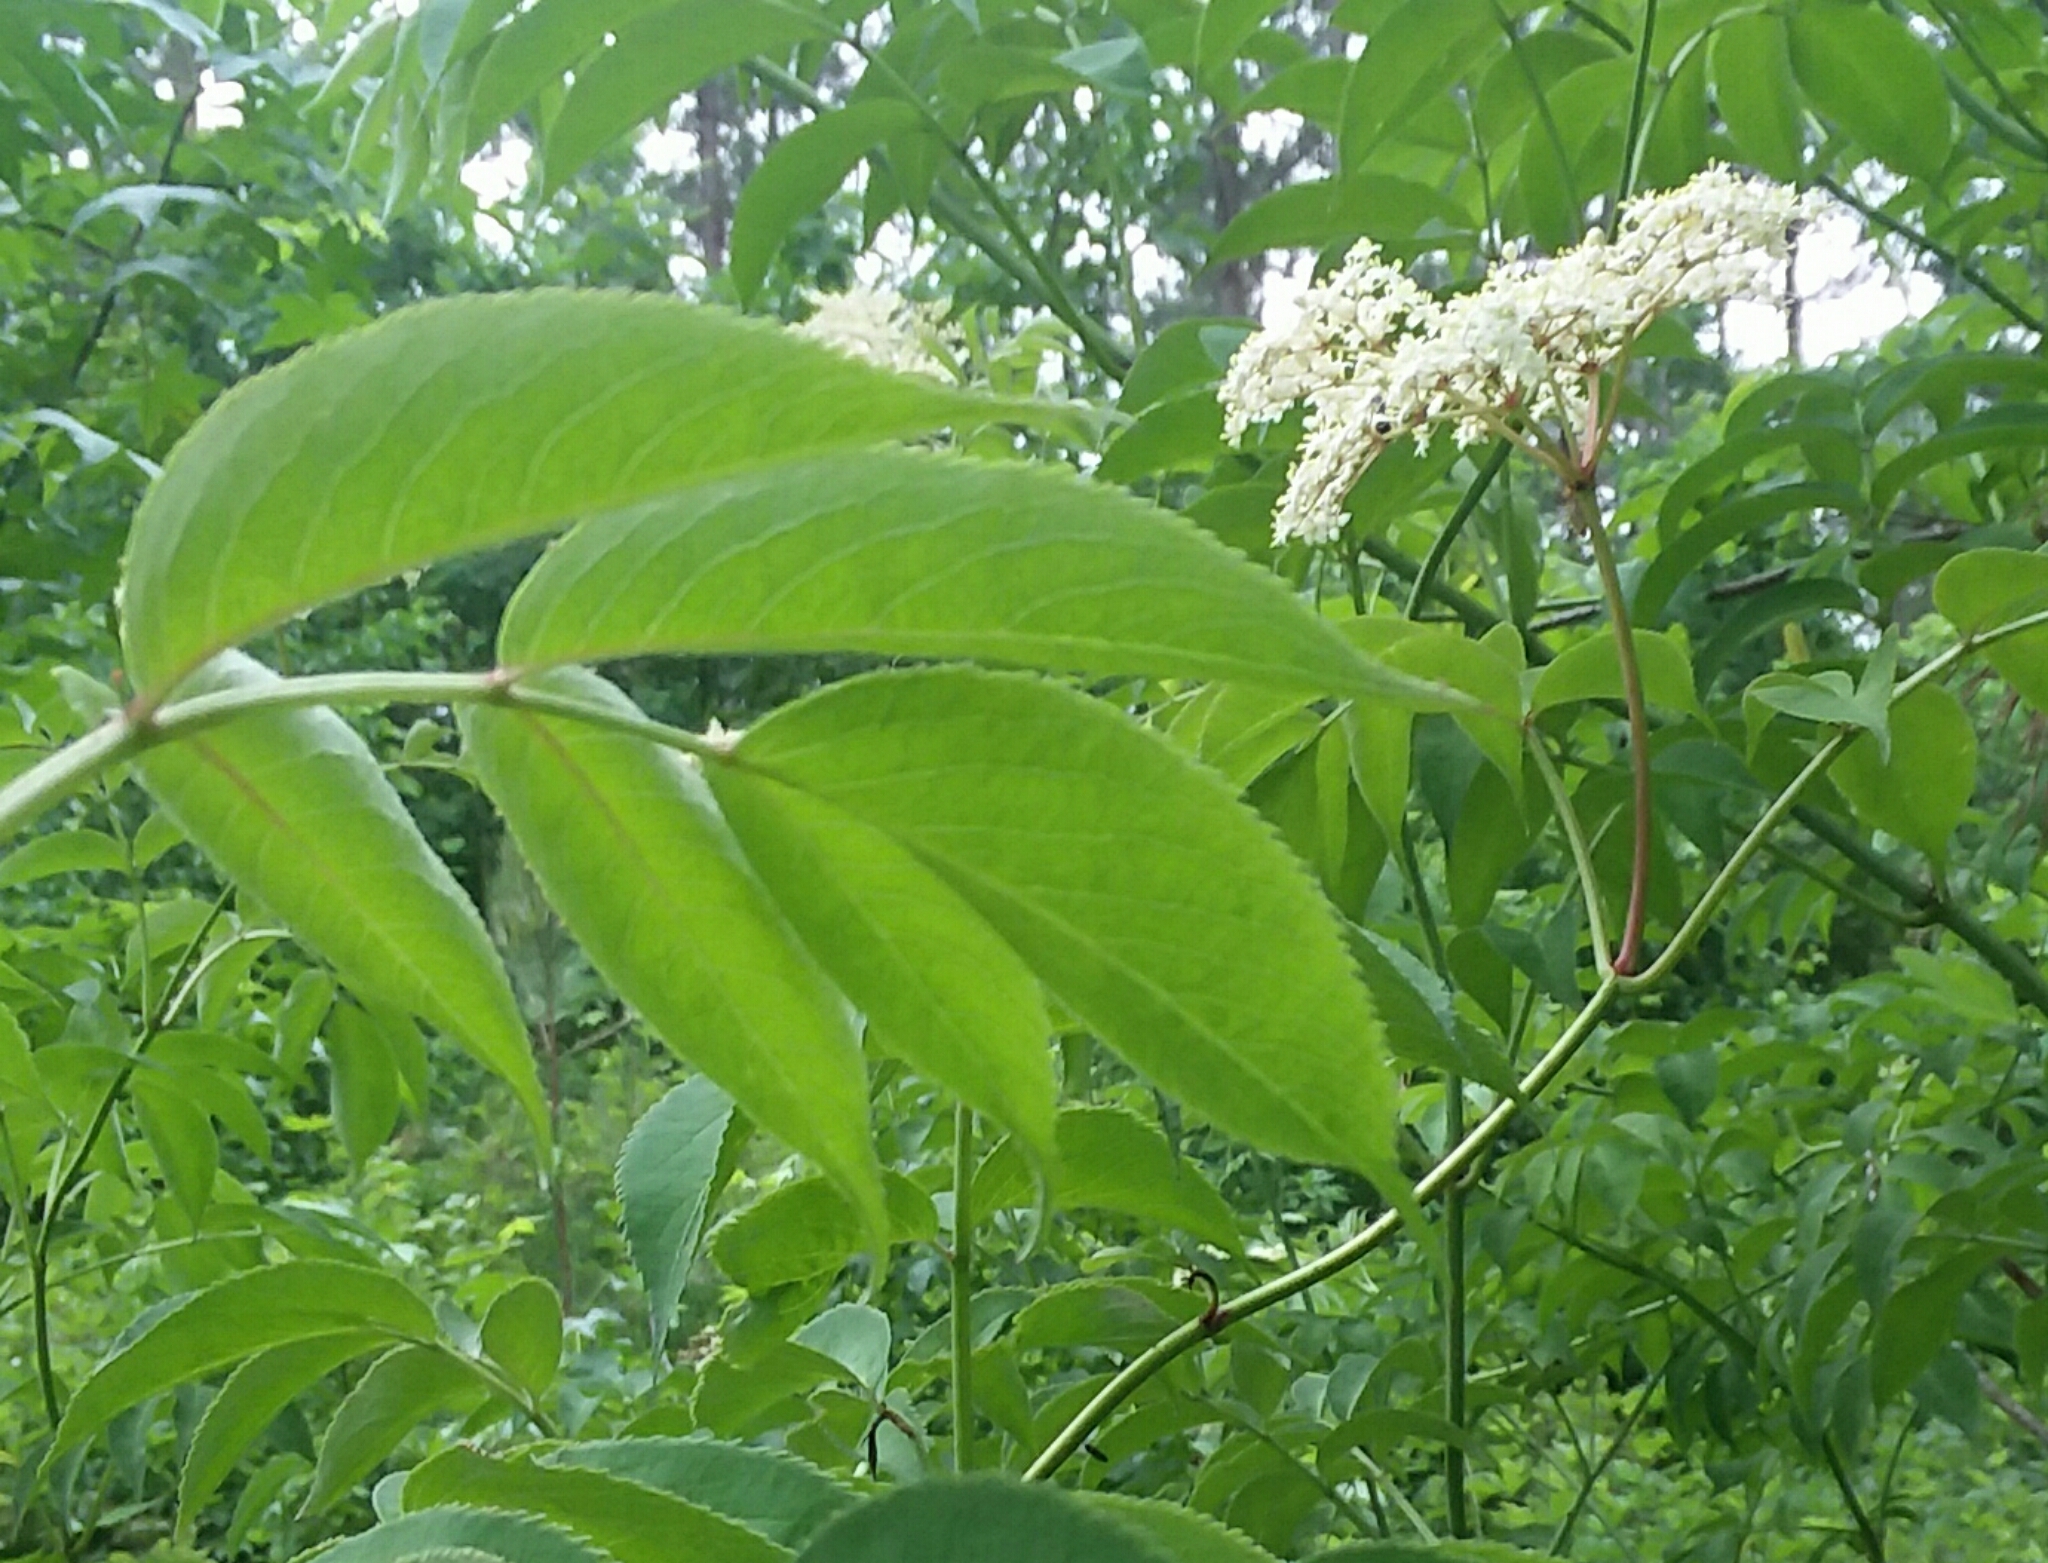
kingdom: Plantae
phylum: Tracheophyta
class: Magnoliopsida
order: Dipsacales
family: Viburnaceae
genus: Sambucus
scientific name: Sambucus canadensis
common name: American elder
